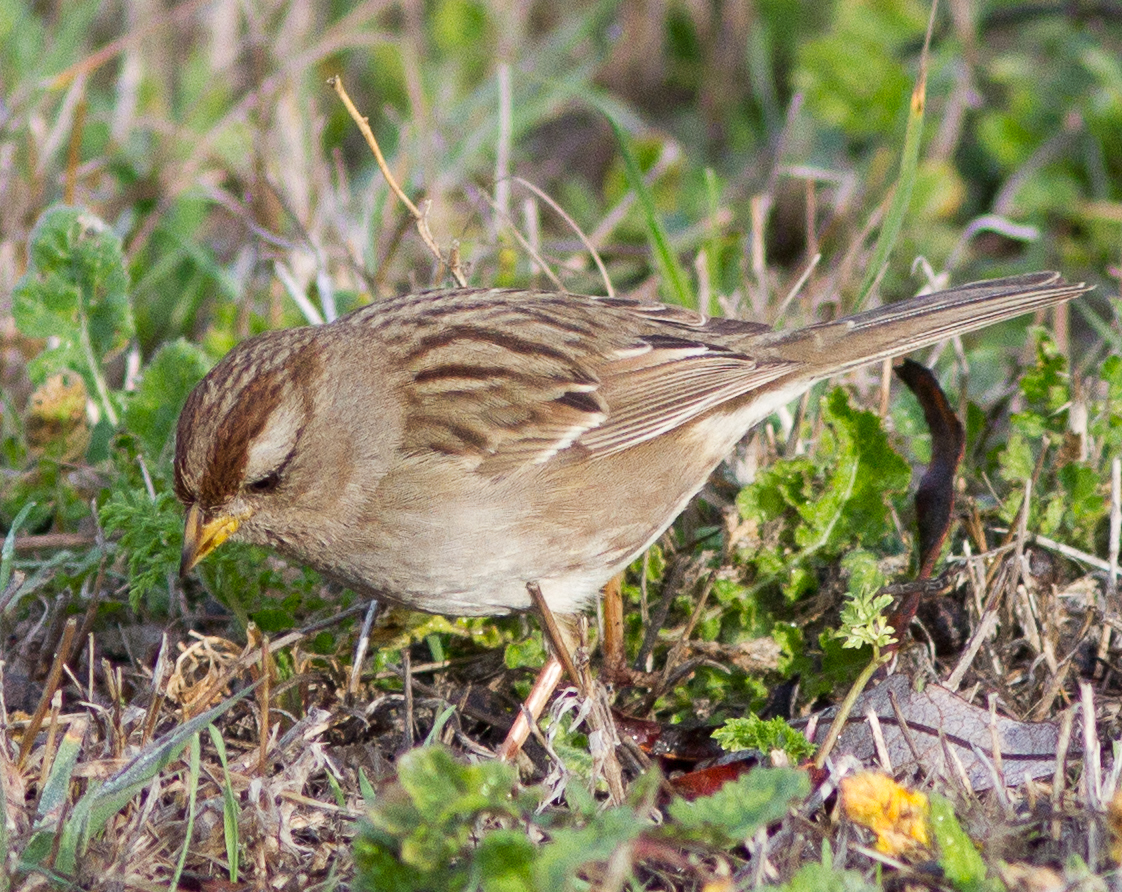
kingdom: Animalia
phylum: Chordata
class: Aves
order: Passeriformes
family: Passerellidae
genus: Zonotrichia
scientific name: Zonotrichia leucophrys
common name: White-crowned sparrow
